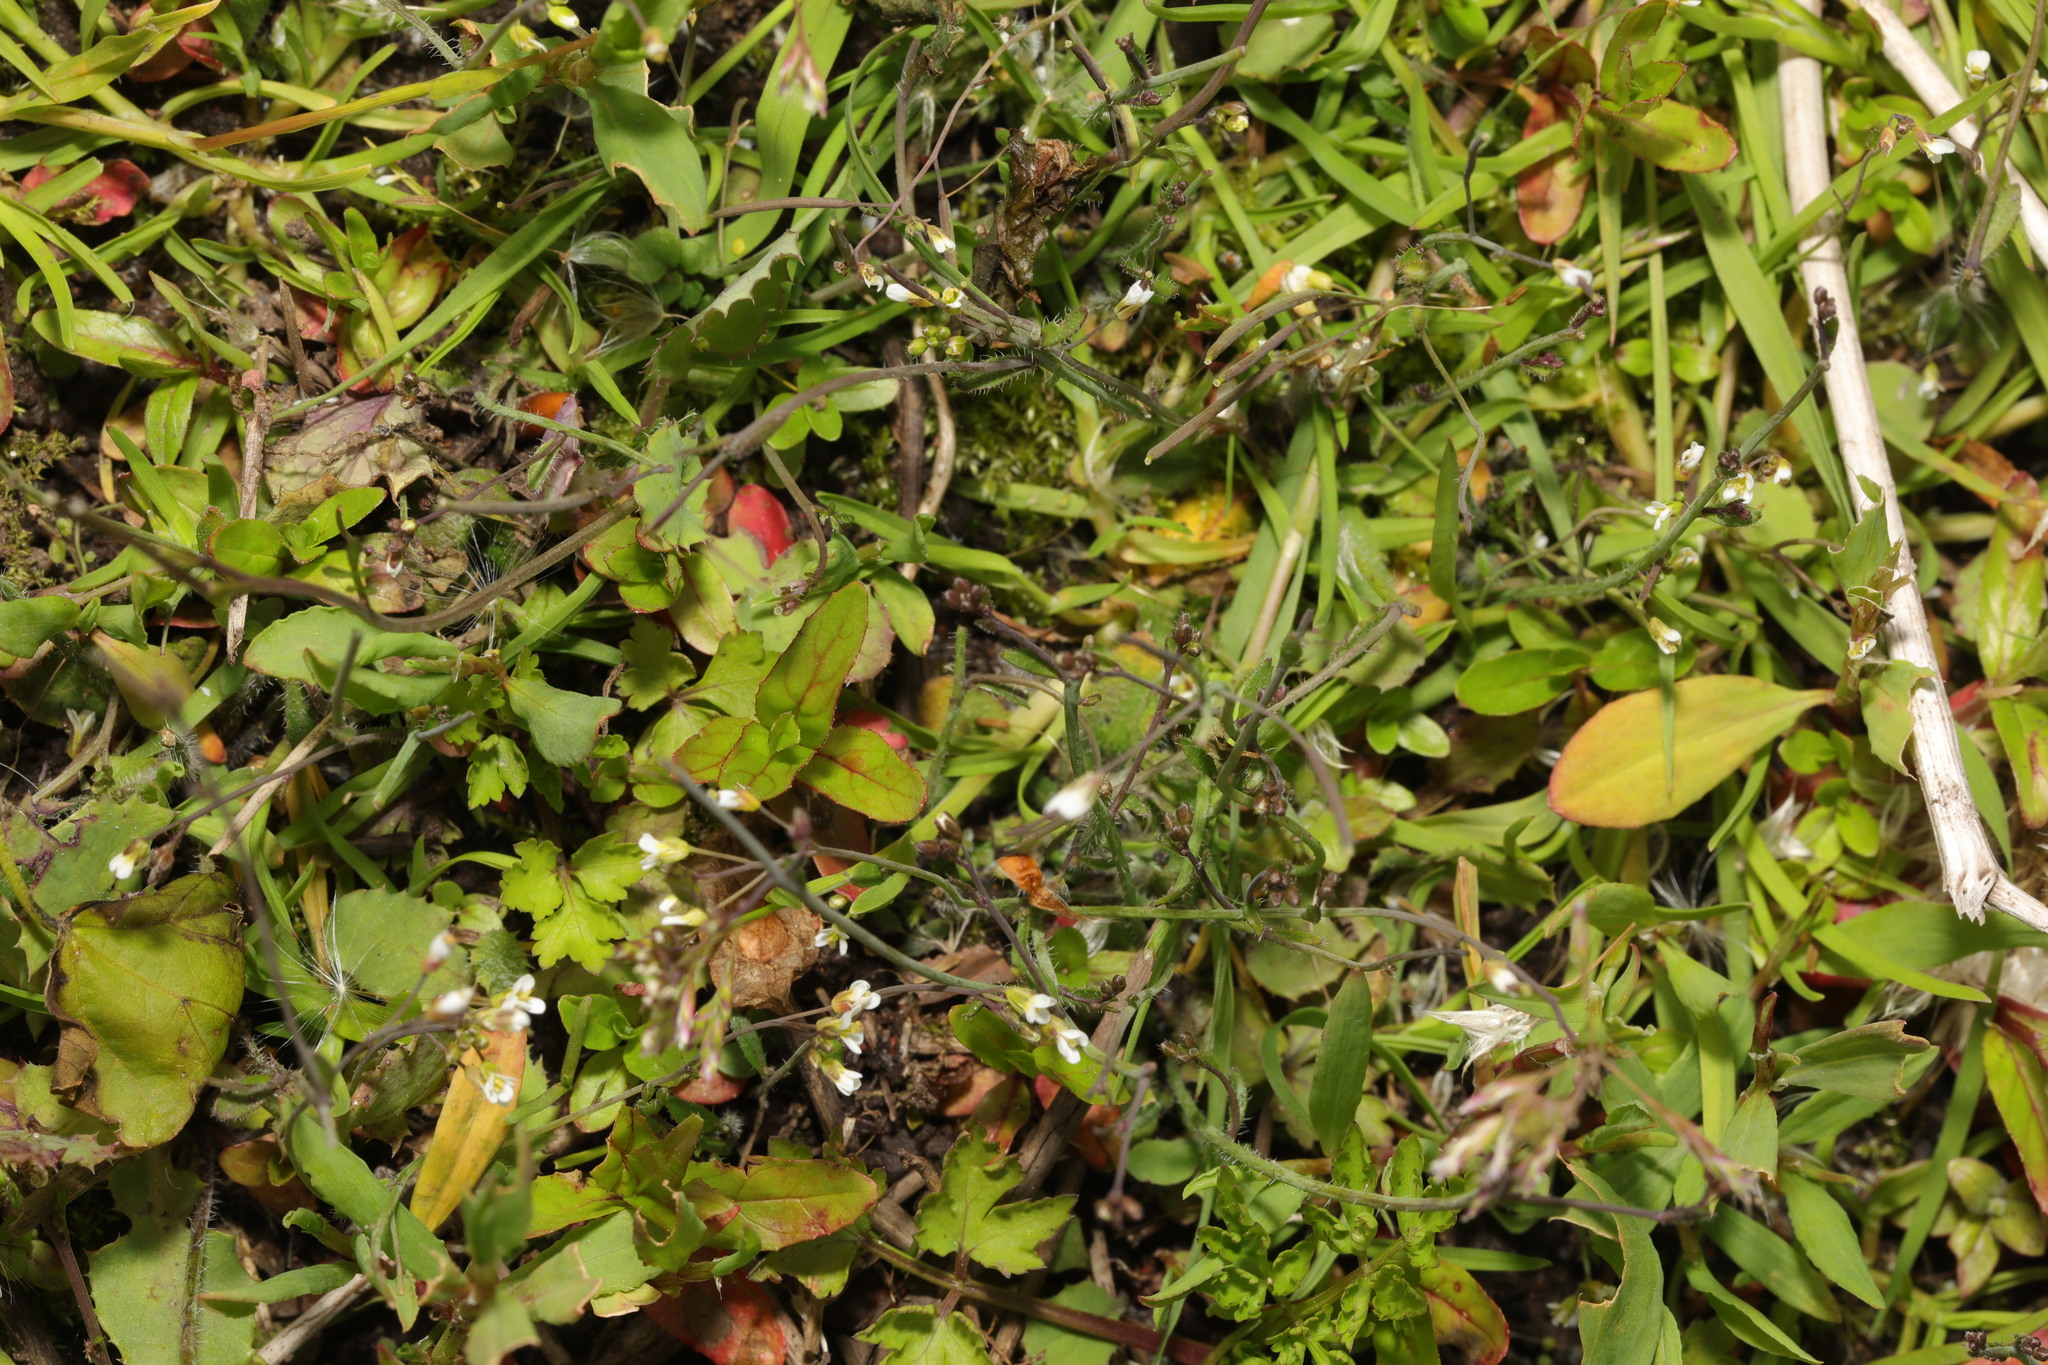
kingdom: Plantae
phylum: Tracheophyta
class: Magnoliopsida
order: Brassicales
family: Brassicaceae
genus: Arabidopsis
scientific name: Arabidopsis thaliana
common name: Thale cress
